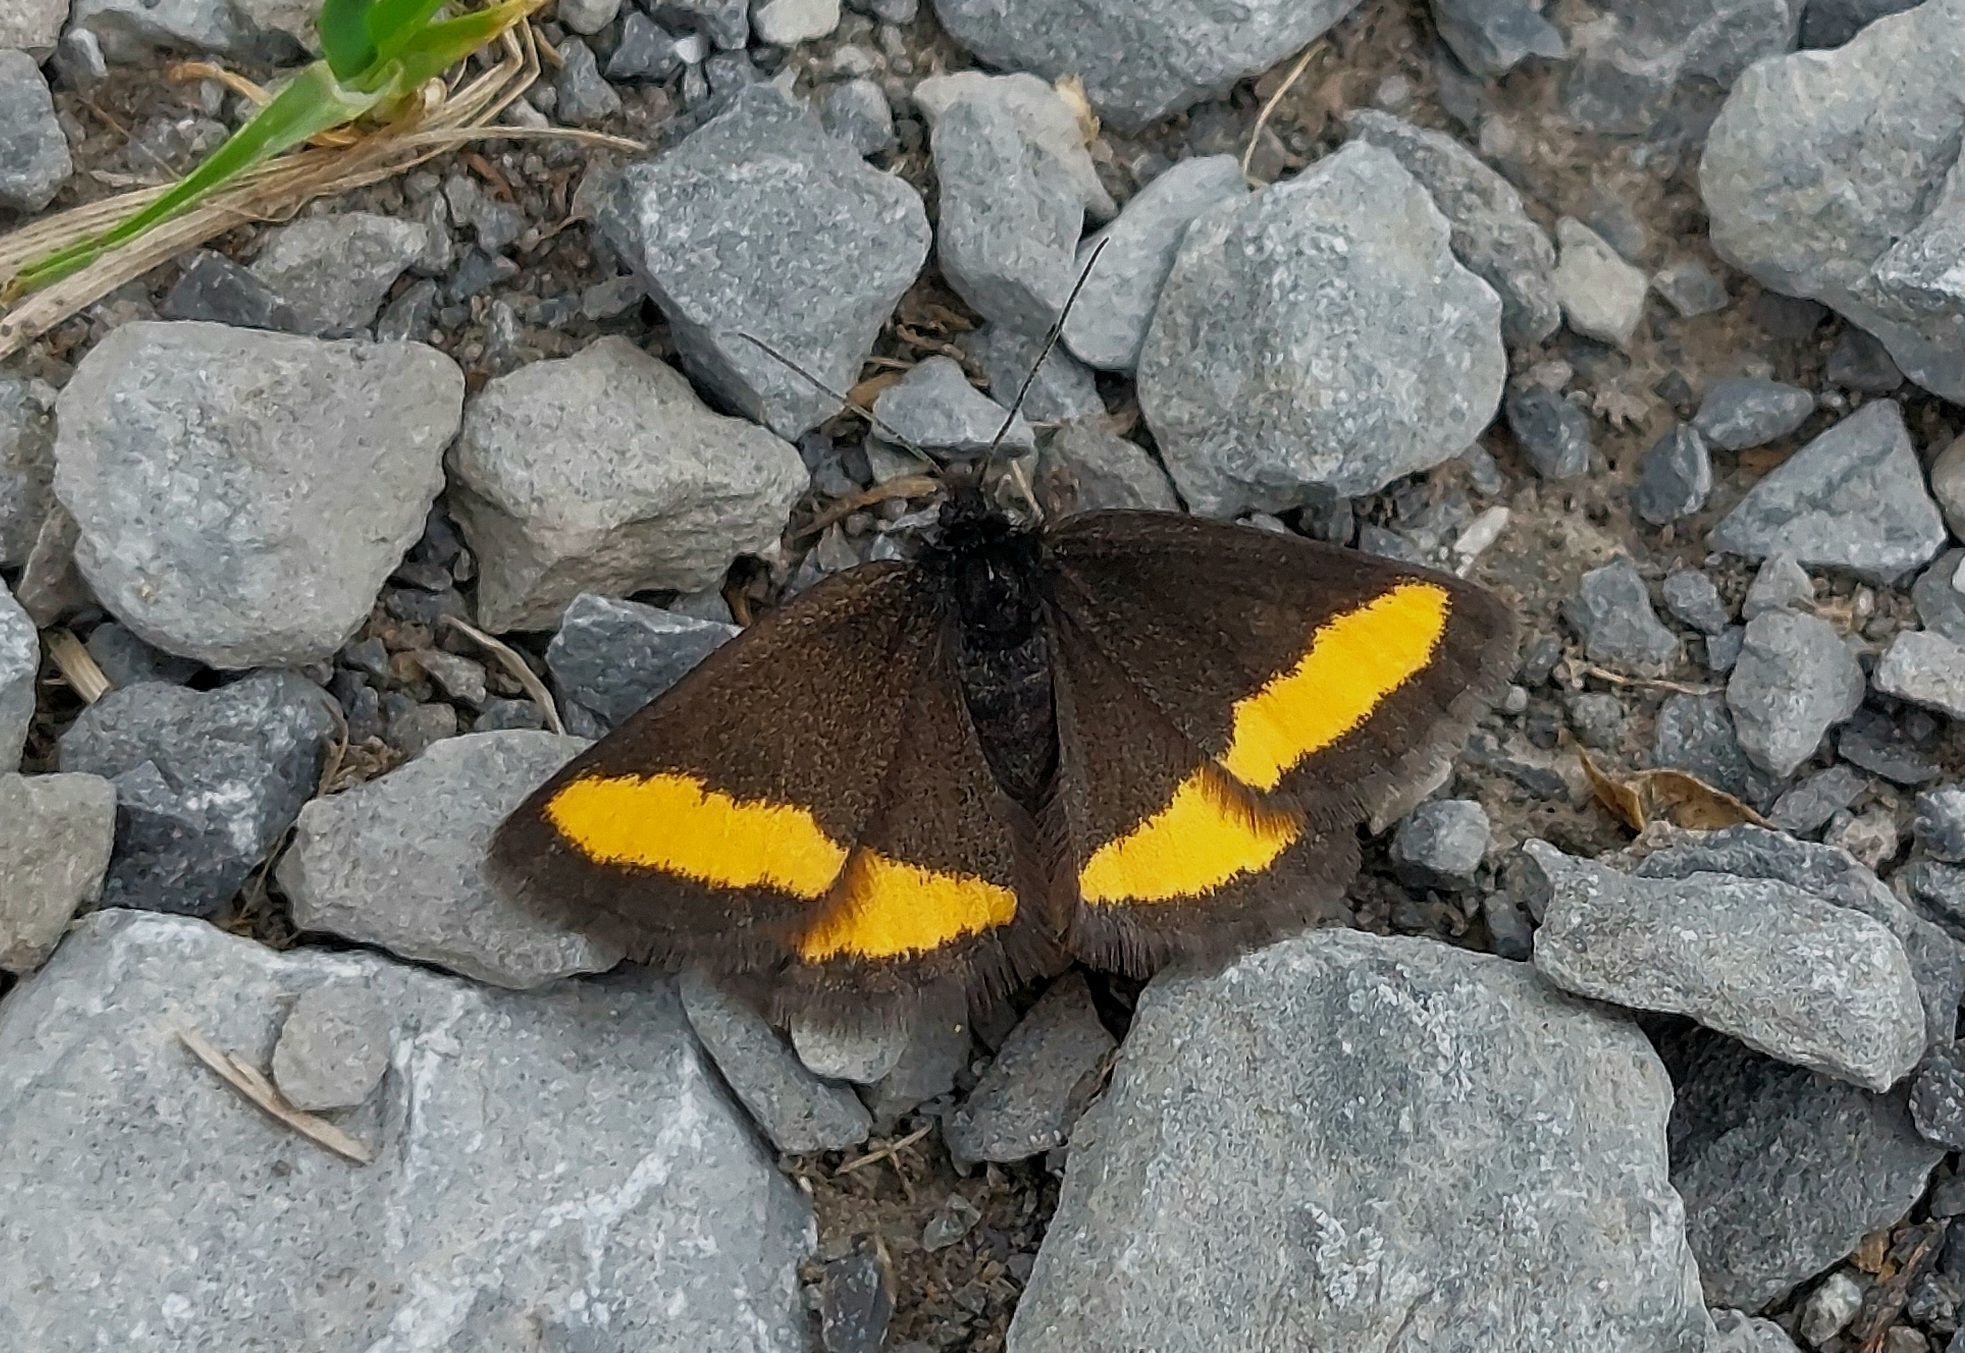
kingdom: Animalia
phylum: Arthropoda
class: Insecta
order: Lepidoptera
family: Geometridae
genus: Psodos
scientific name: Psodos quadrifaria
